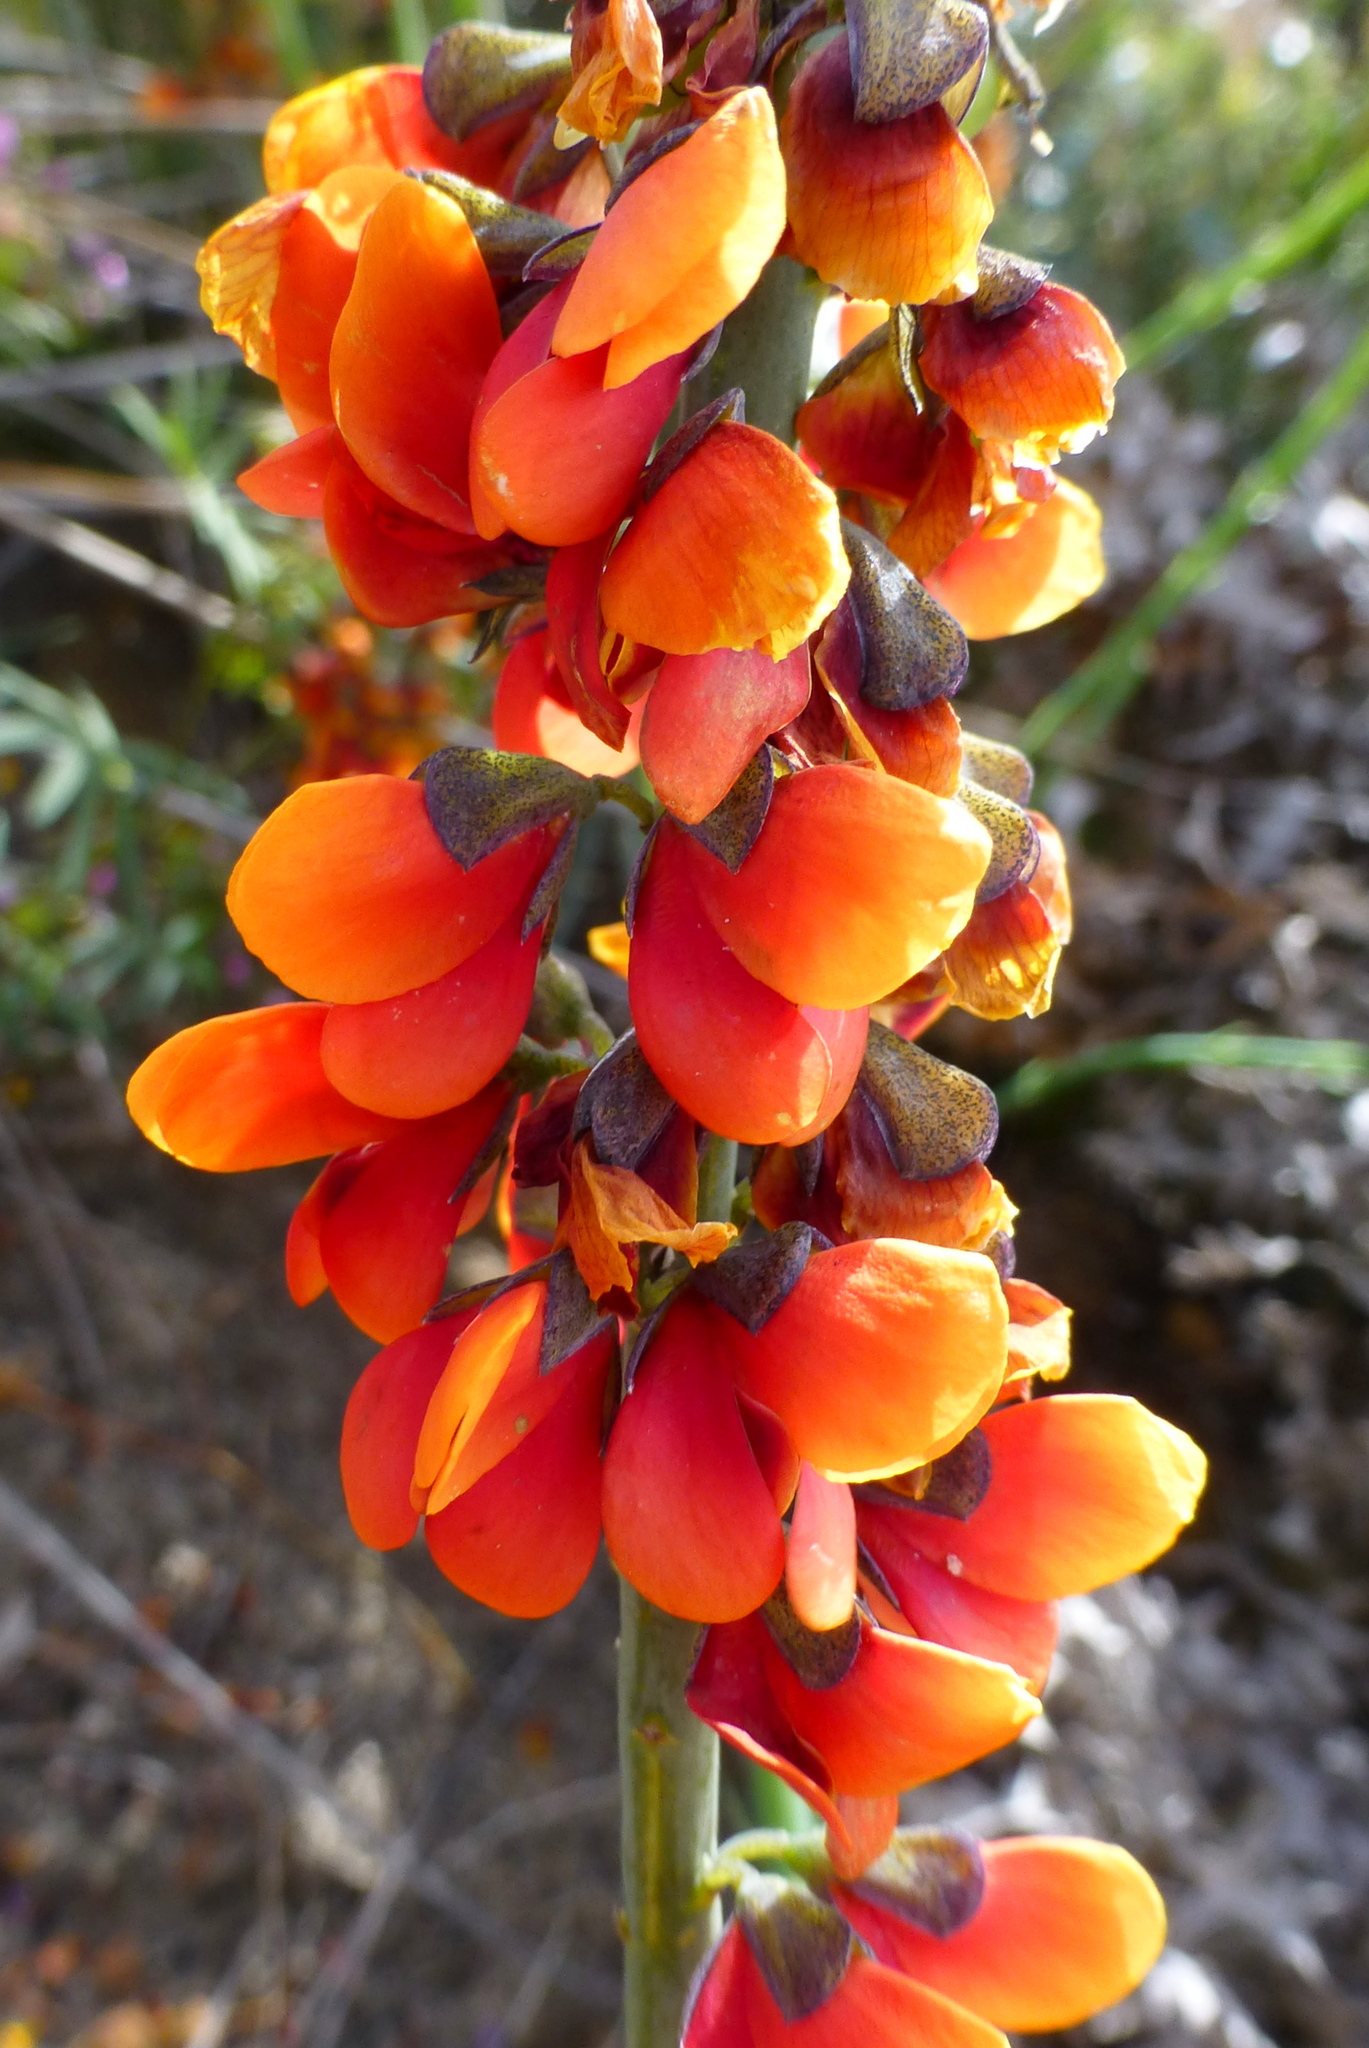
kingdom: Plantae
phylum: Tracheophyta
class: Magnoliopsida
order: Fabales
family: Fabaceae
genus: Sphaerolobium
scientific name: Sphaerolobium drummondii
